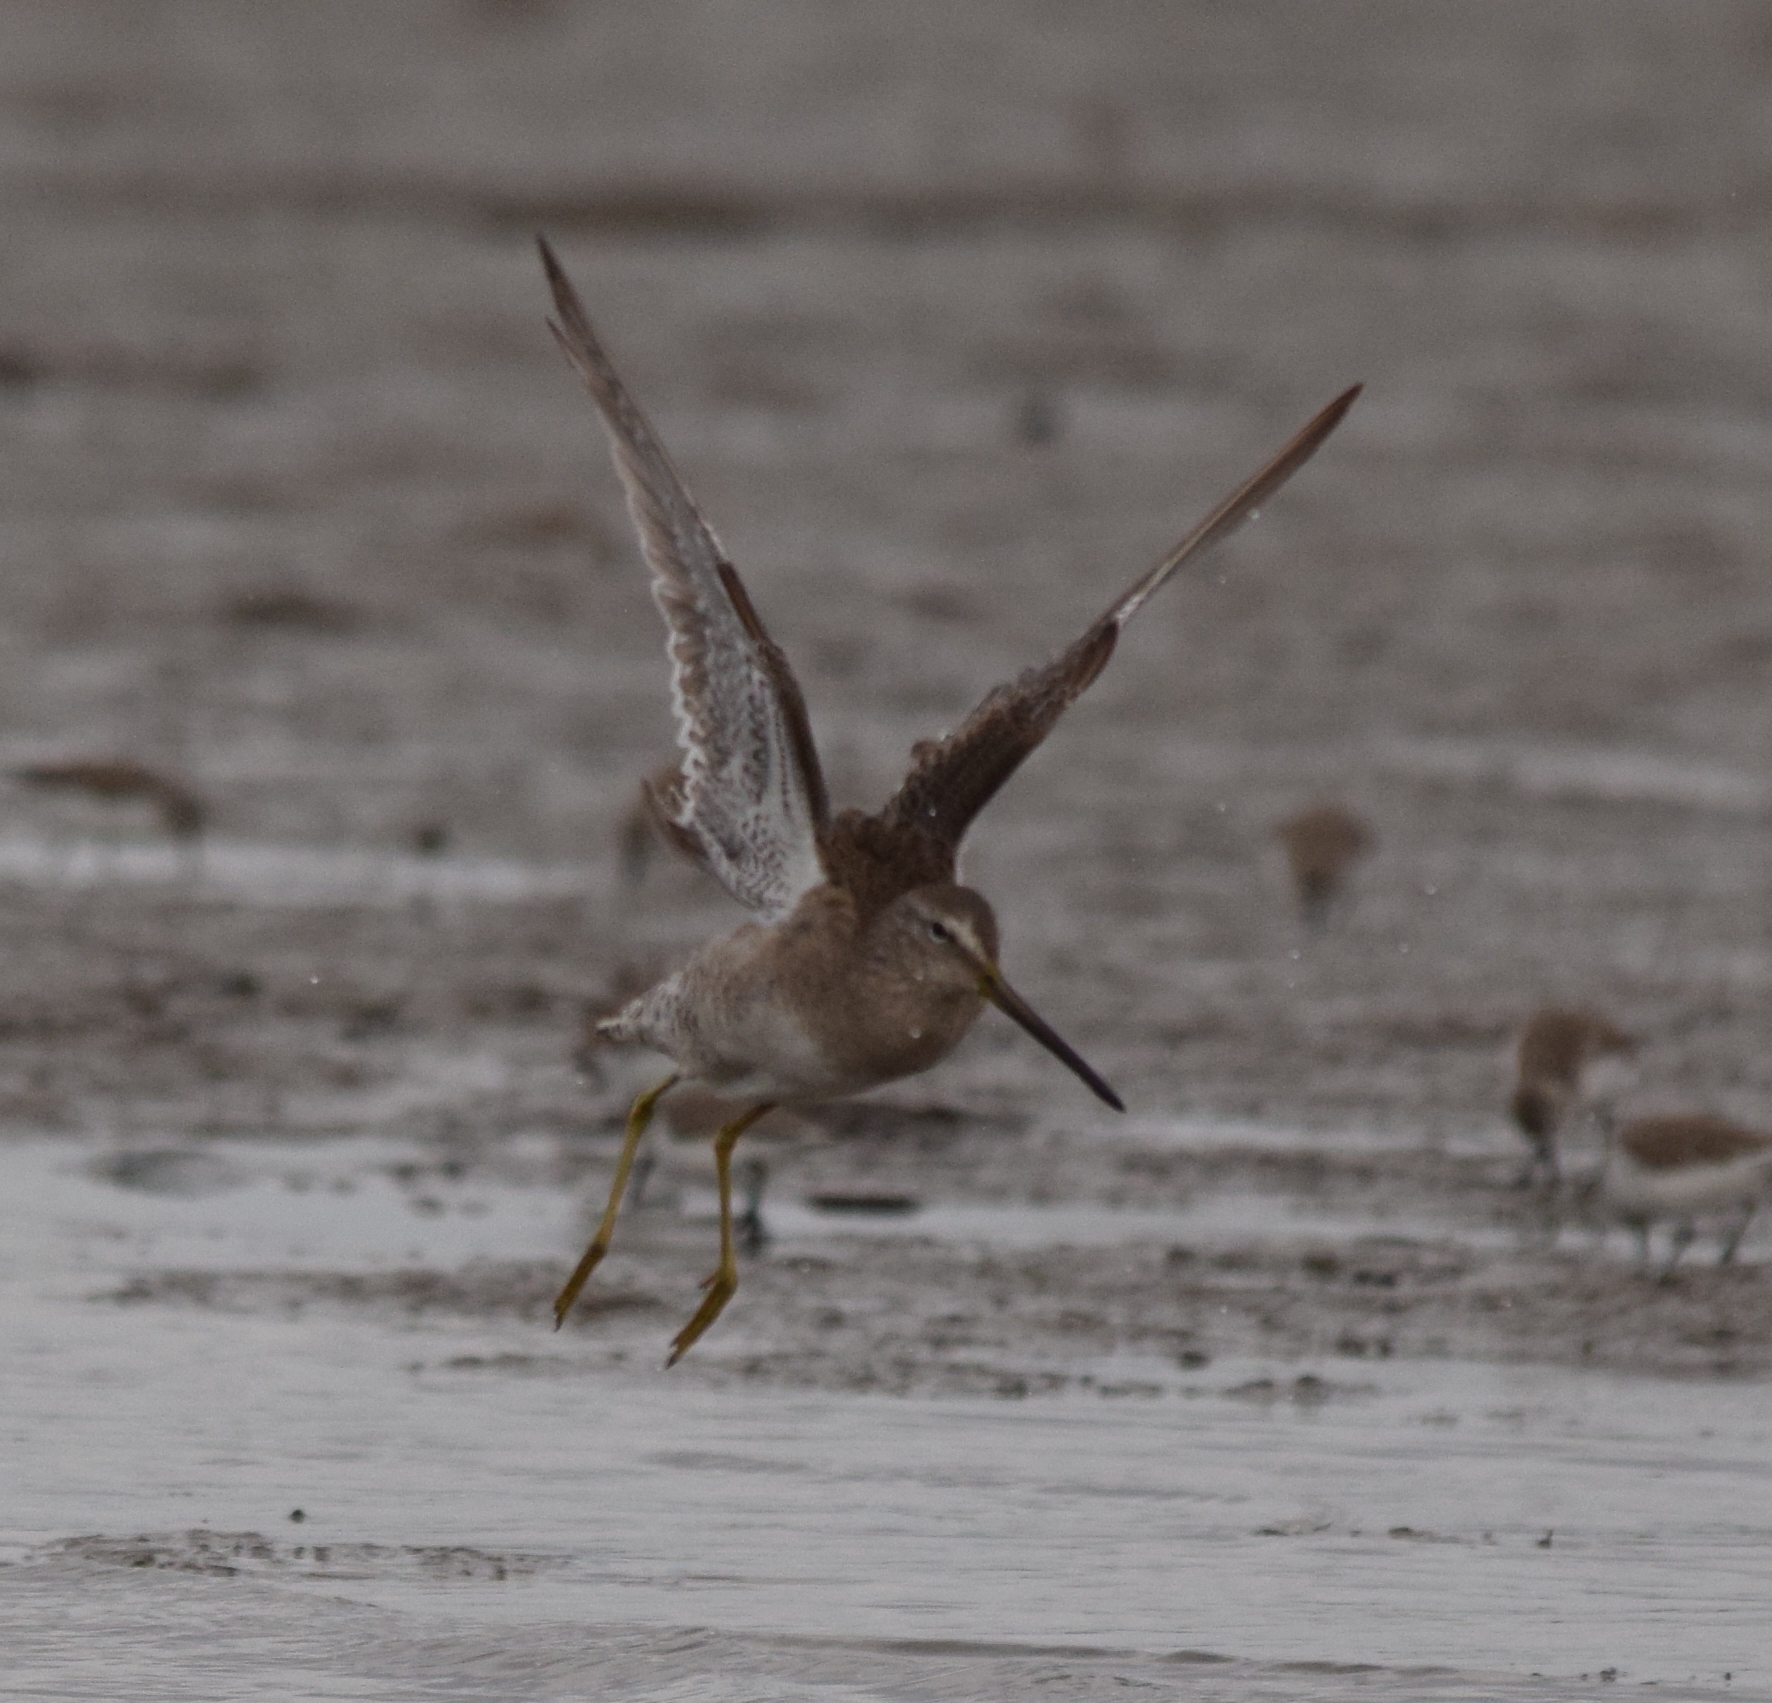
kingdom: Animalia
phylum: Chordata
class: Aves
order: Charadriiformes
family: Scolopacidae
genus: Limnodromus
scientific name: Limnodromus scolopaceus
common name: Long-billed dowitcher
